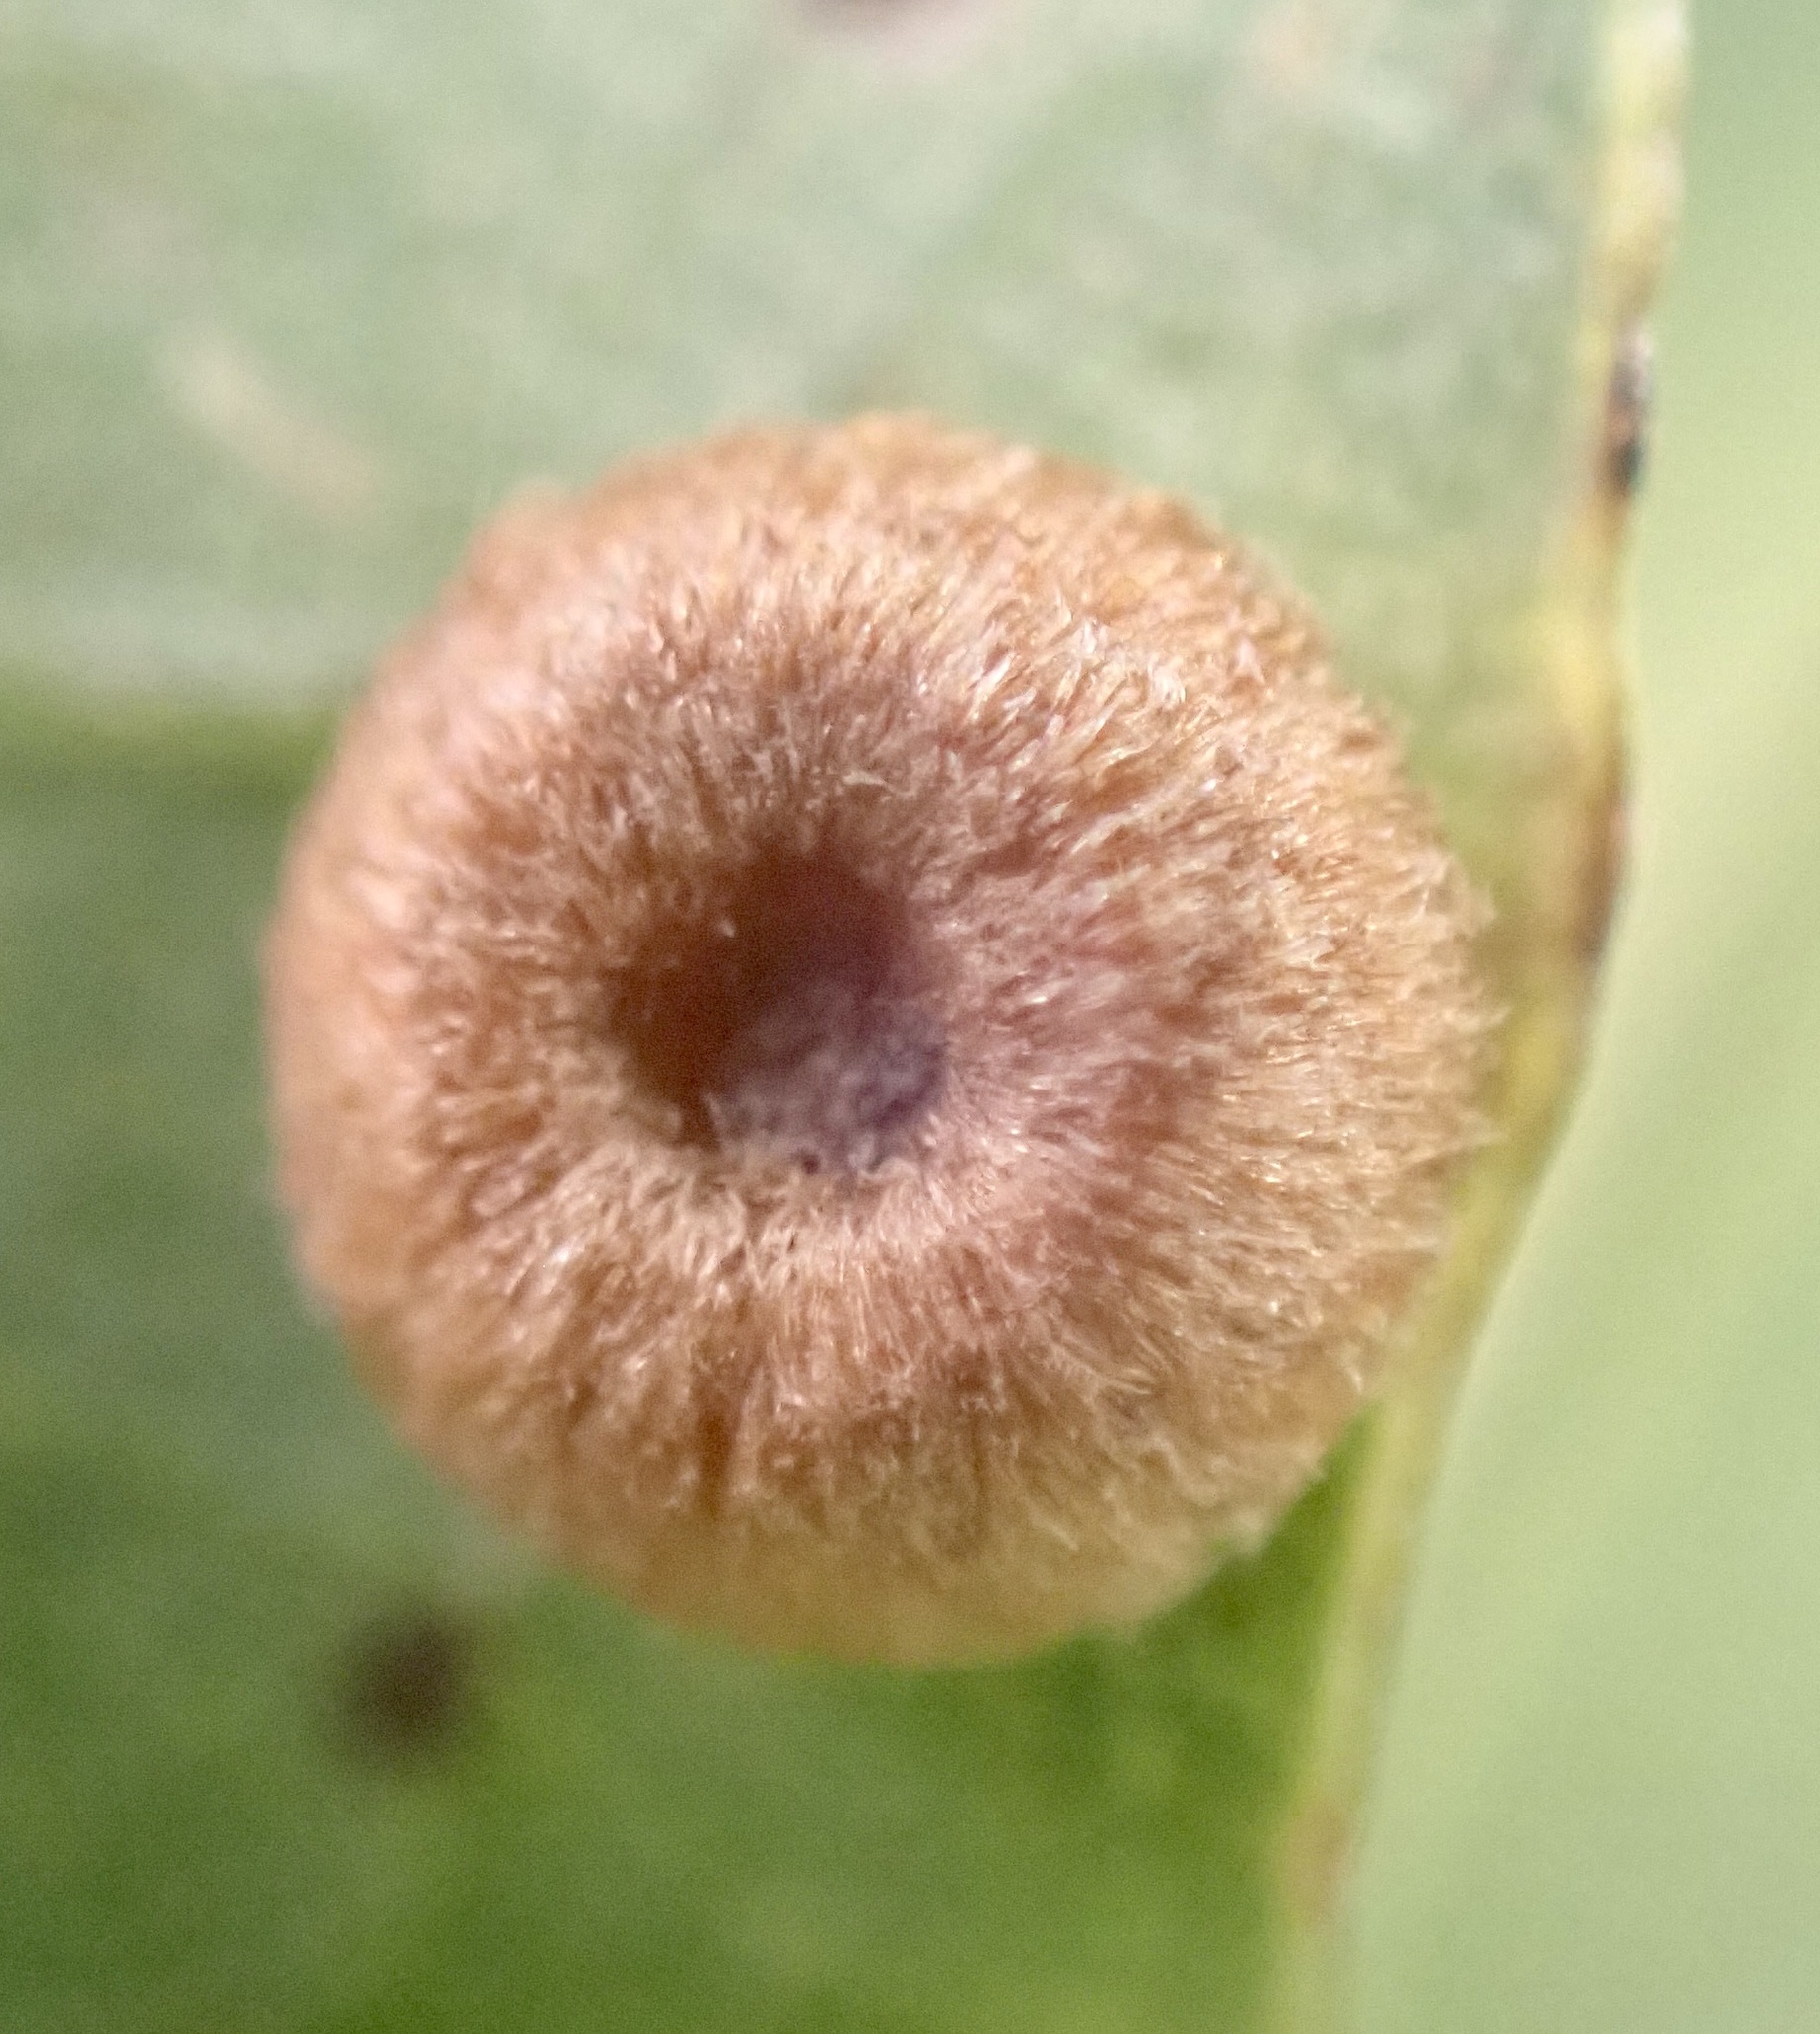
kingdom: Animalia
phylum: Arthropoda
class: Insecta
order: Hymenoptera
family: Cynipidae
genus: Neuroterus
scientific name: Neuroterus numismalis
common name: Silk-button spangle gall
